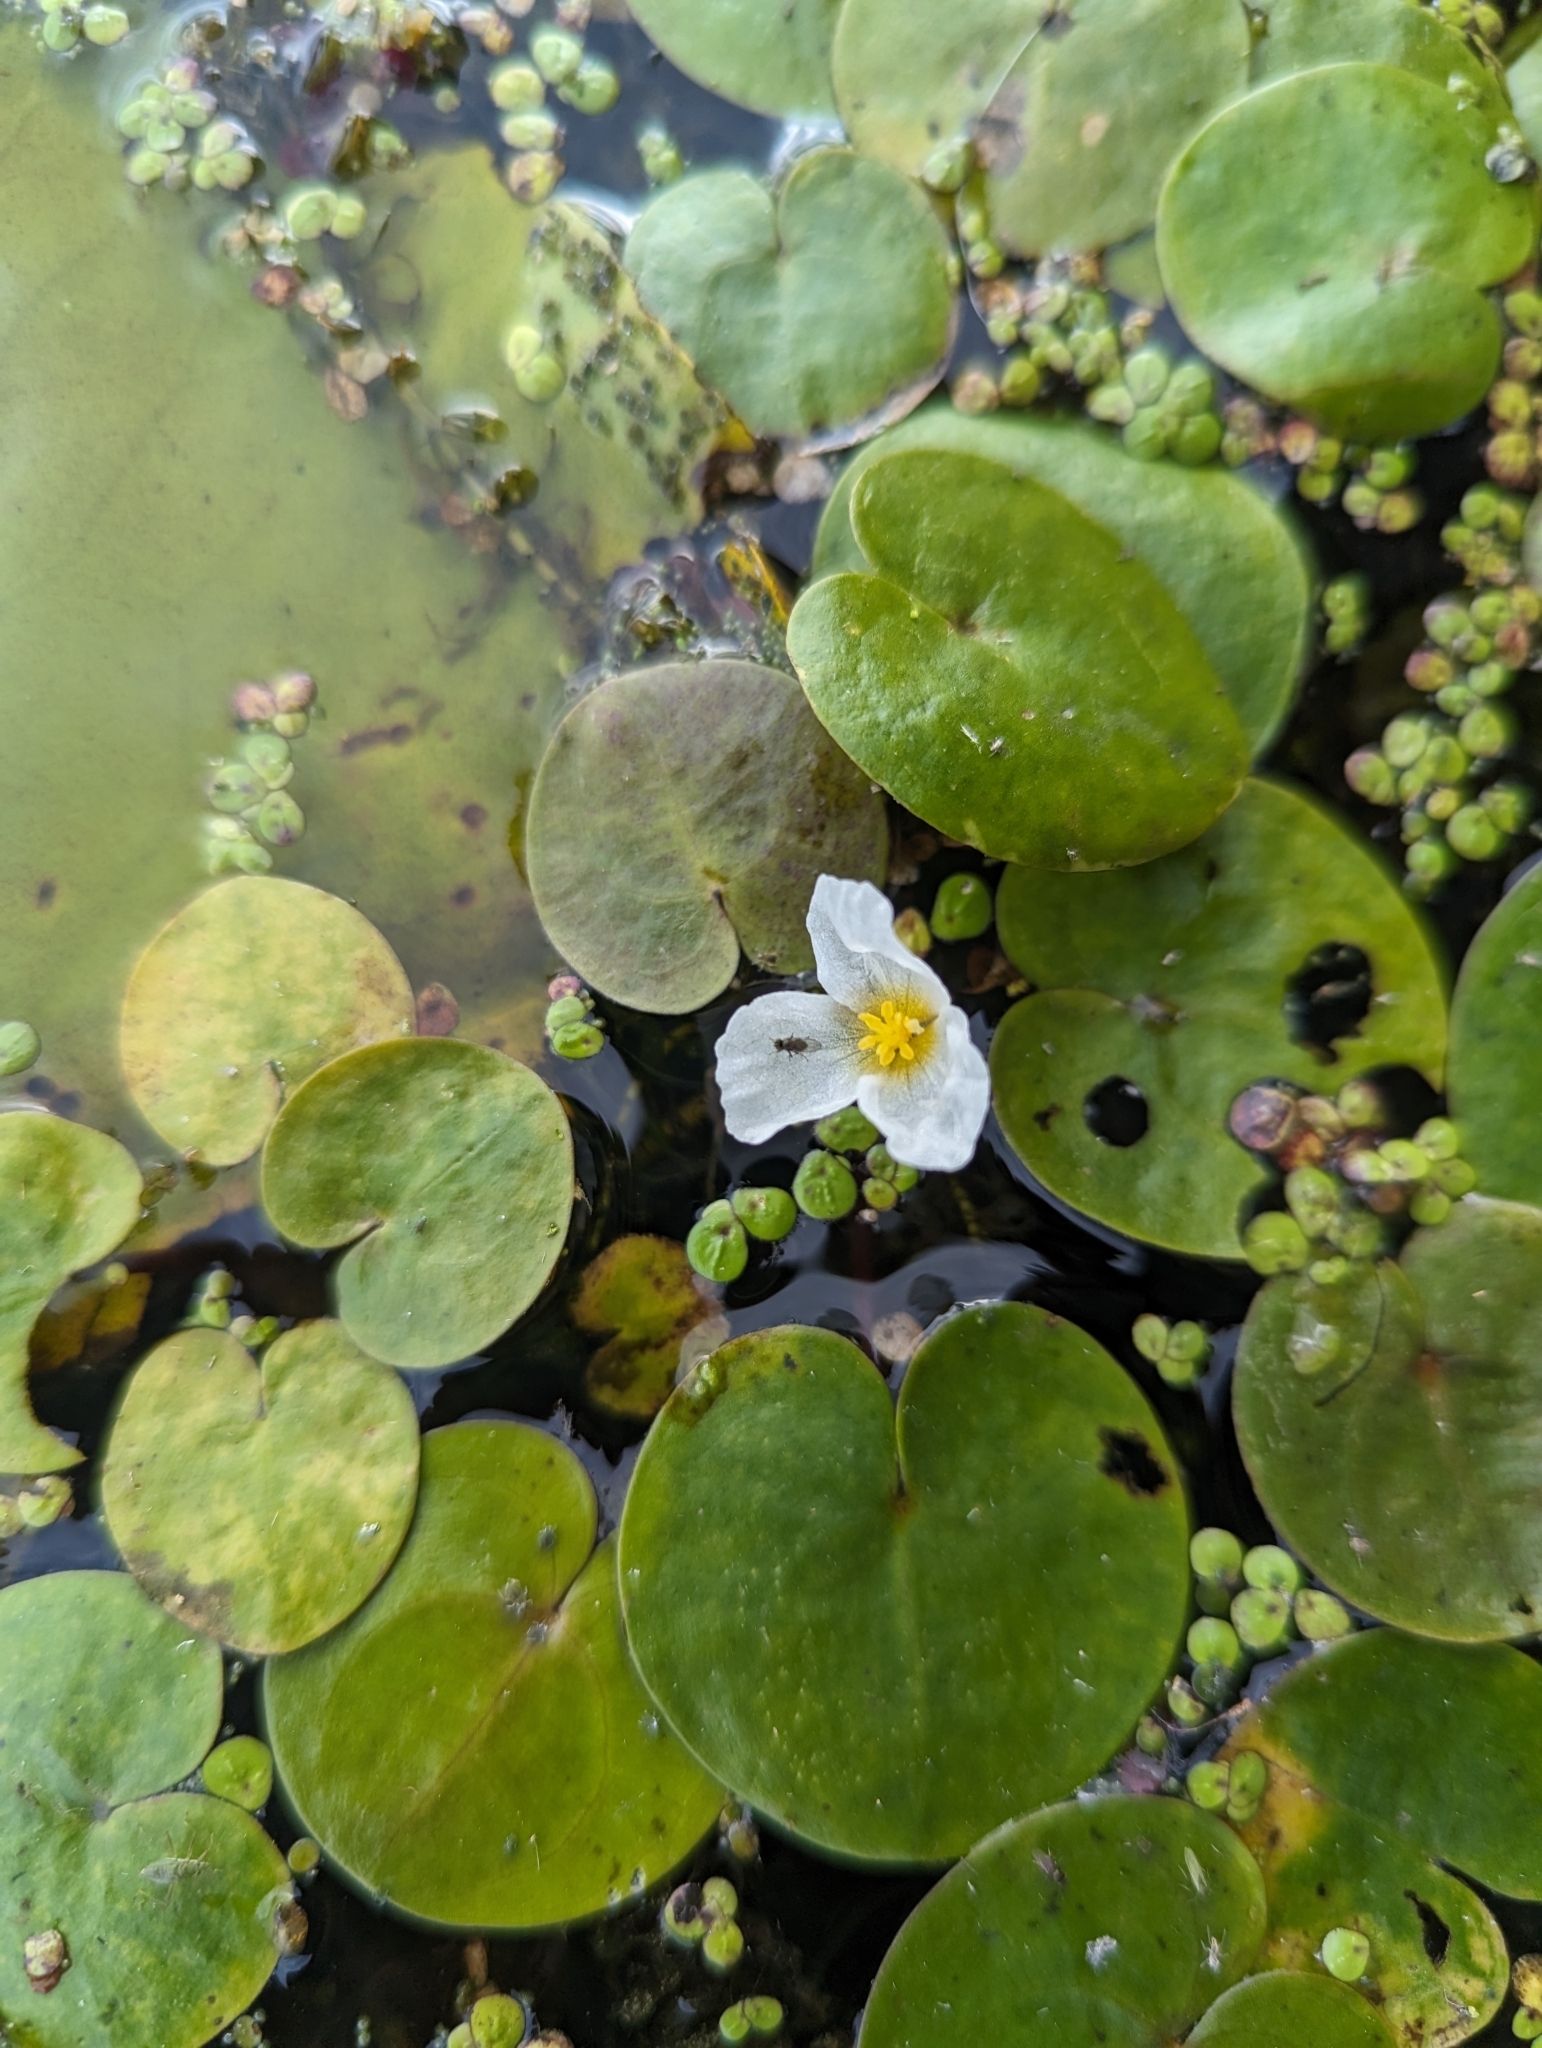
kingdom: Plantae
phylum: Tracheophyta
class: Liliopsida
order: Alismatales
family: Hydrocharitaceae
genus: Hydrocharis
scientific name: Hydrocharis morsus-ranae
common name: Frogbit
